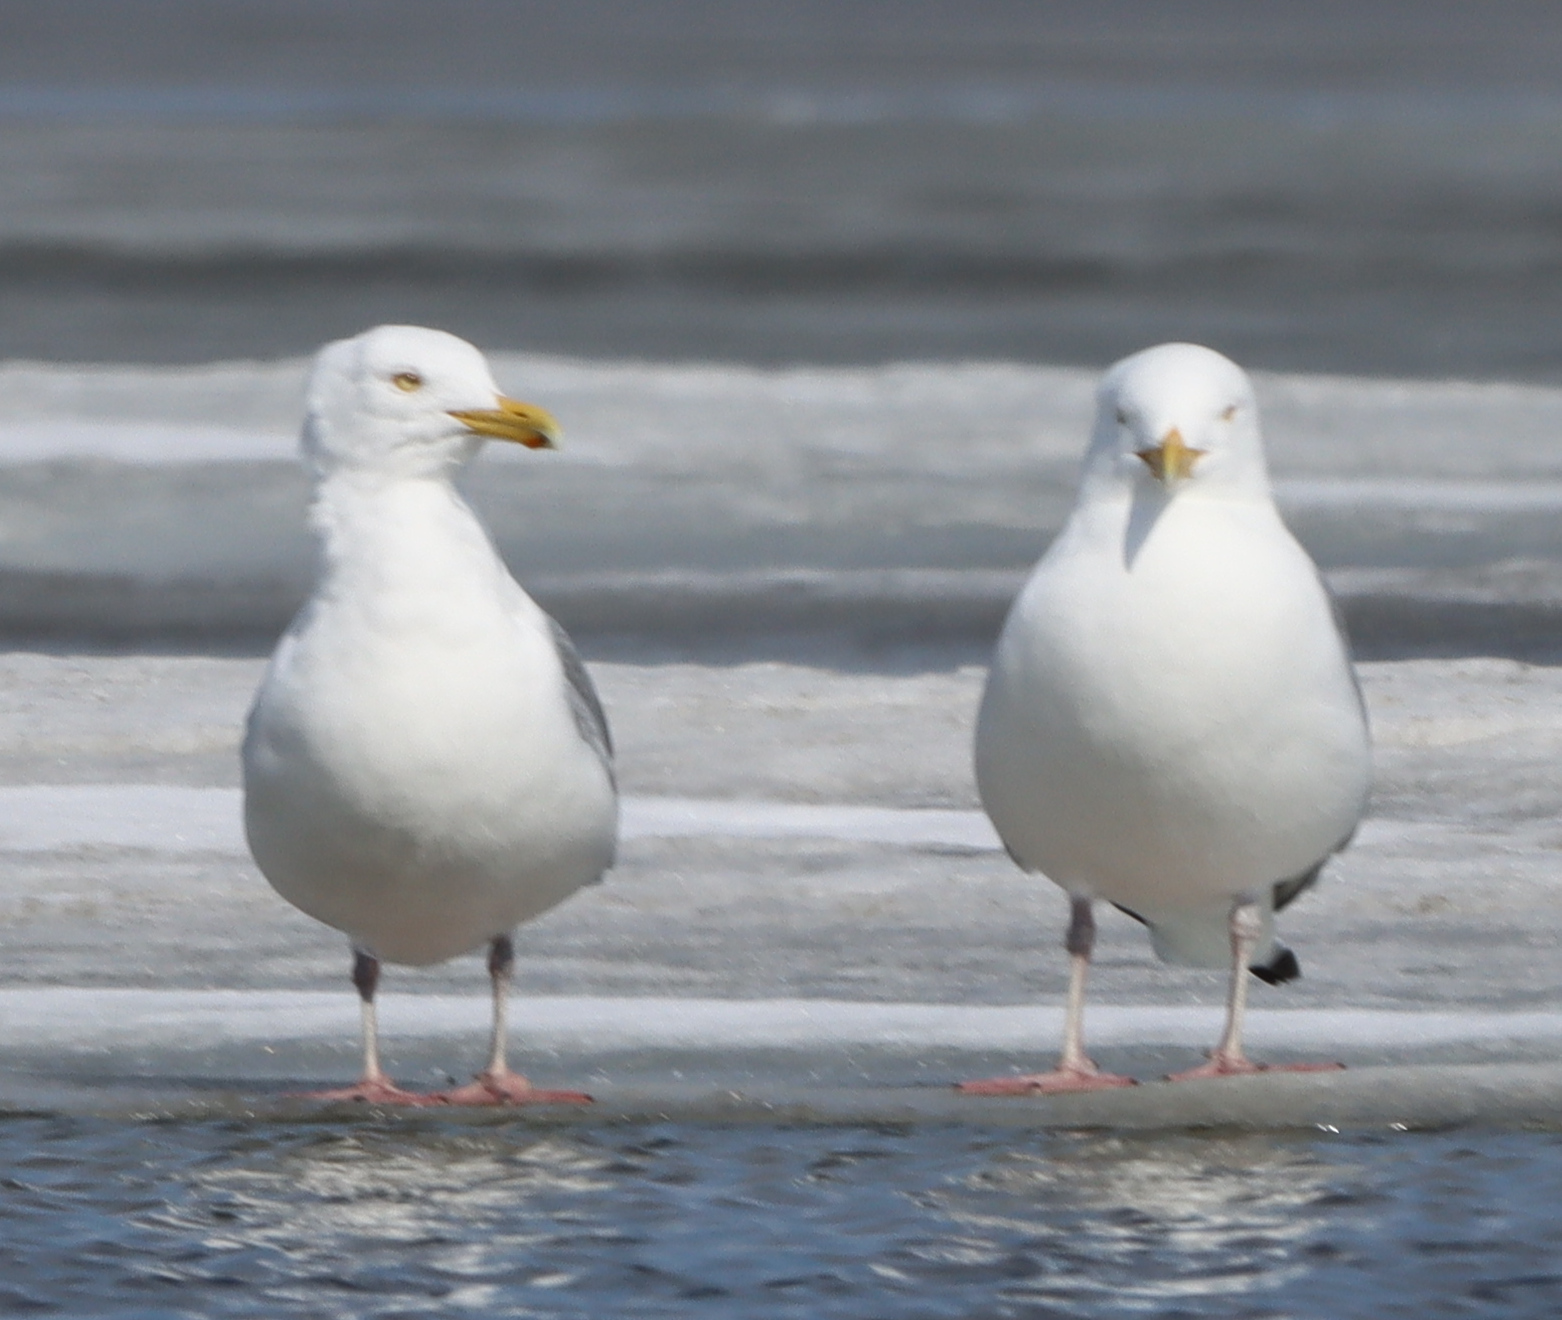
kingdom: Animalia
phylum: Chordata
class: Aves
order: Charadriiformes
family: Laridae
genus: Larus
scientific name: Larus argentatus
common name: Herring gull
